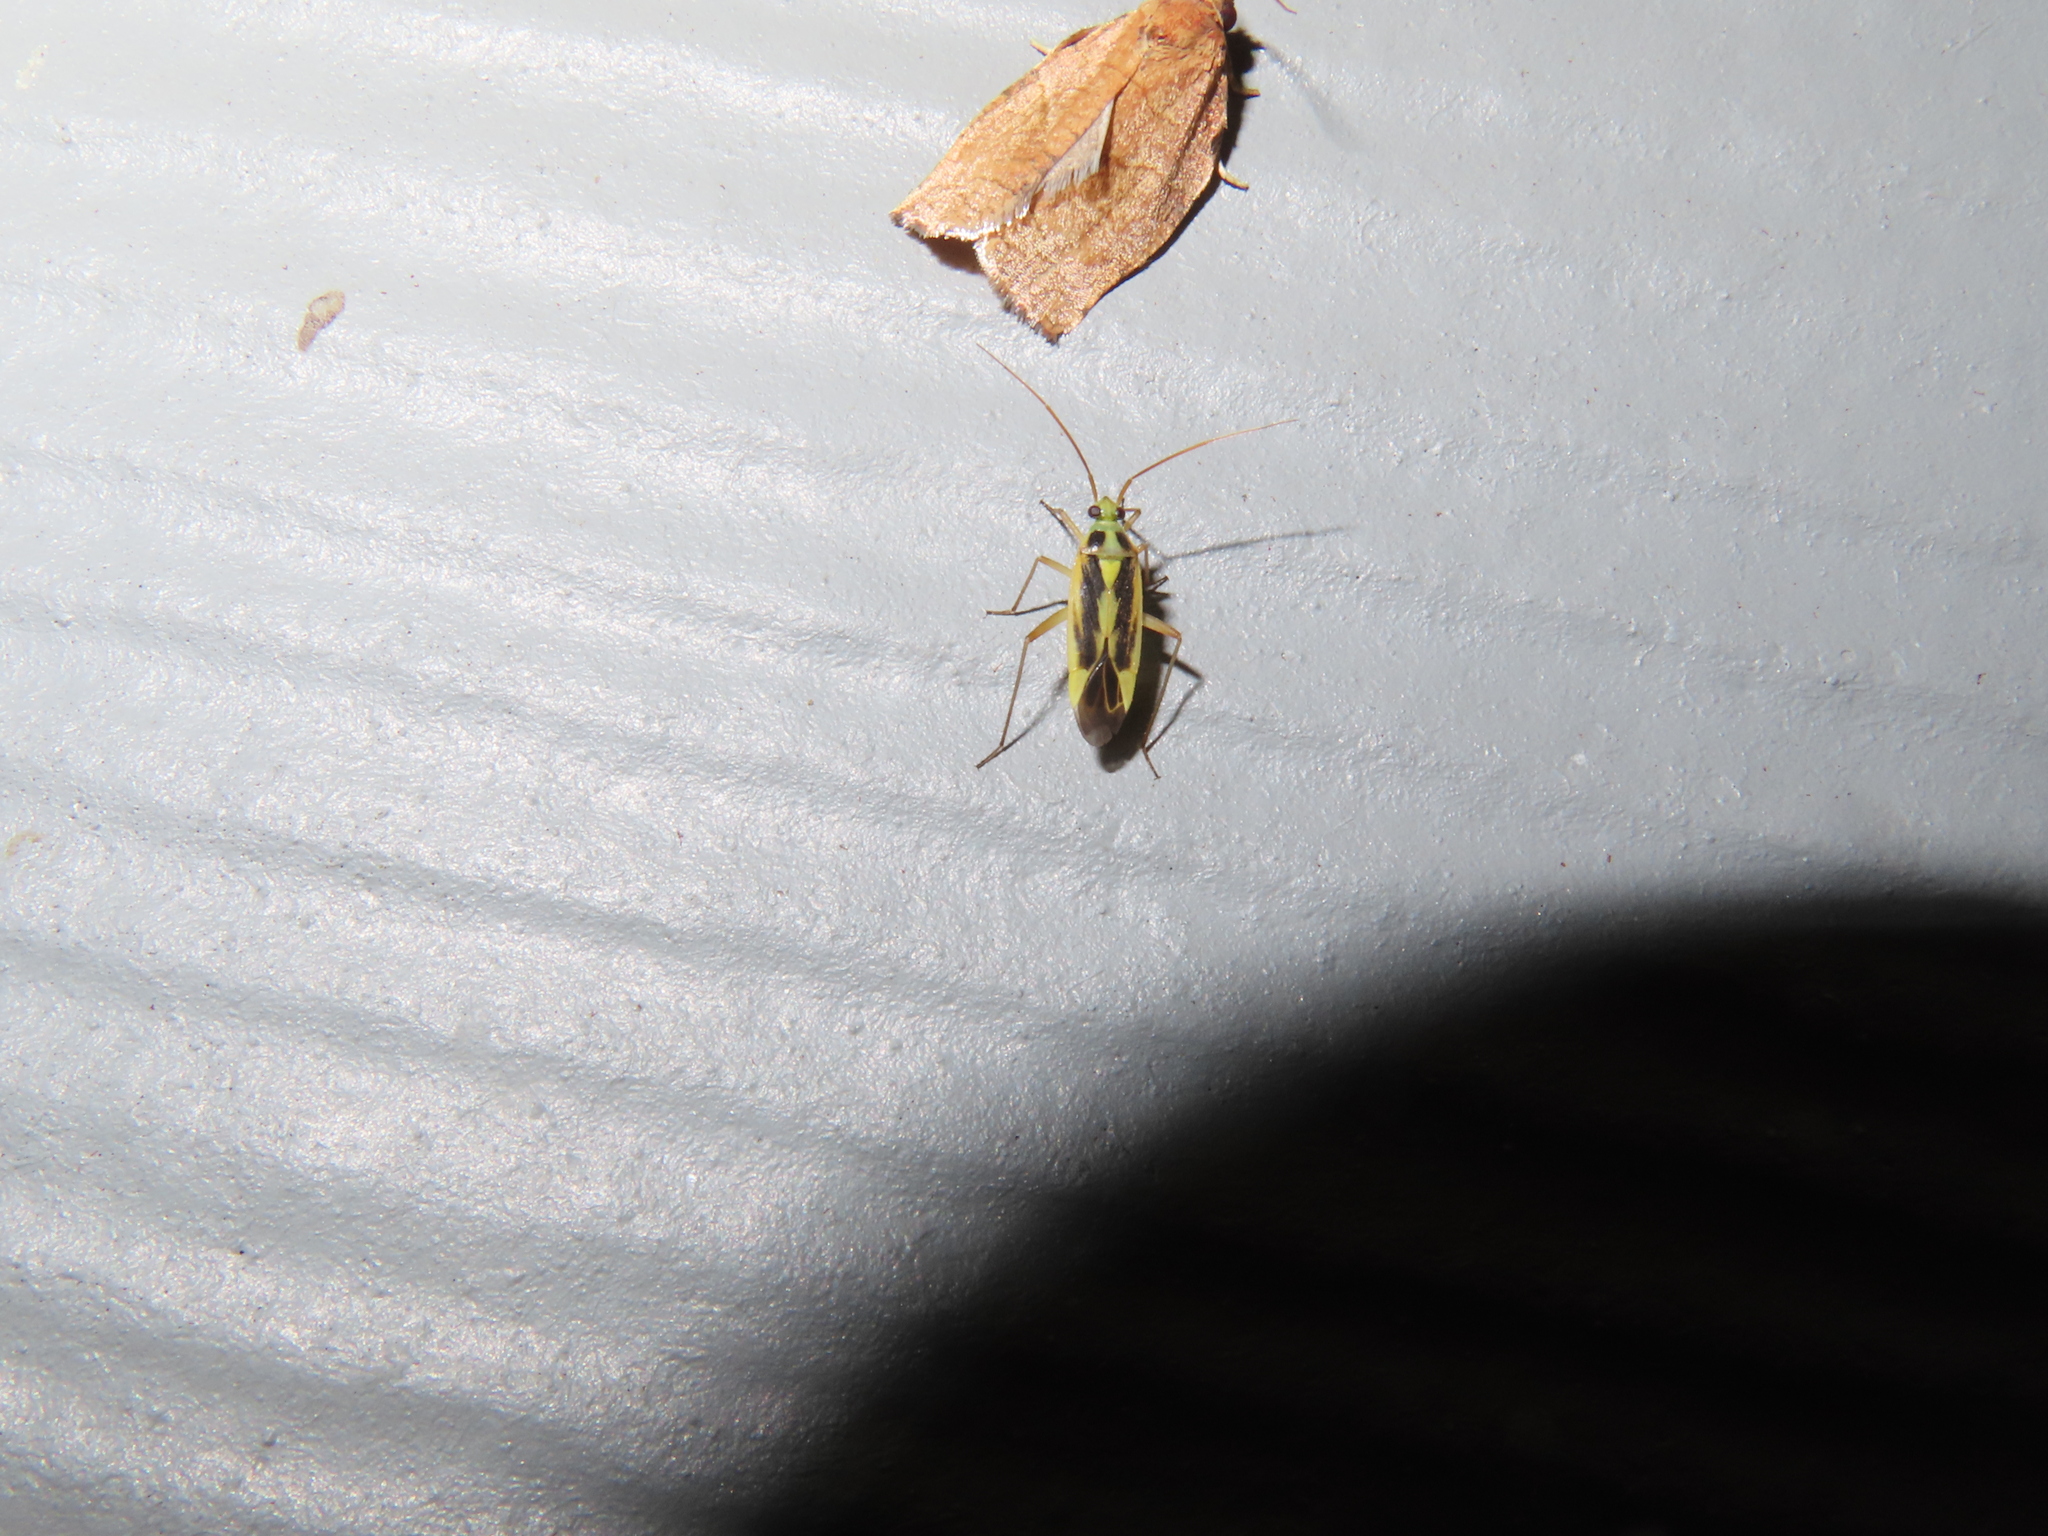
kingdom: Animalia
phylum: Arthropoda
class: Insecta
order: Hemiptera
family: Miridae
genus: Stenotus
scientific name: Stenotus binotatus
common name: Plant bug
